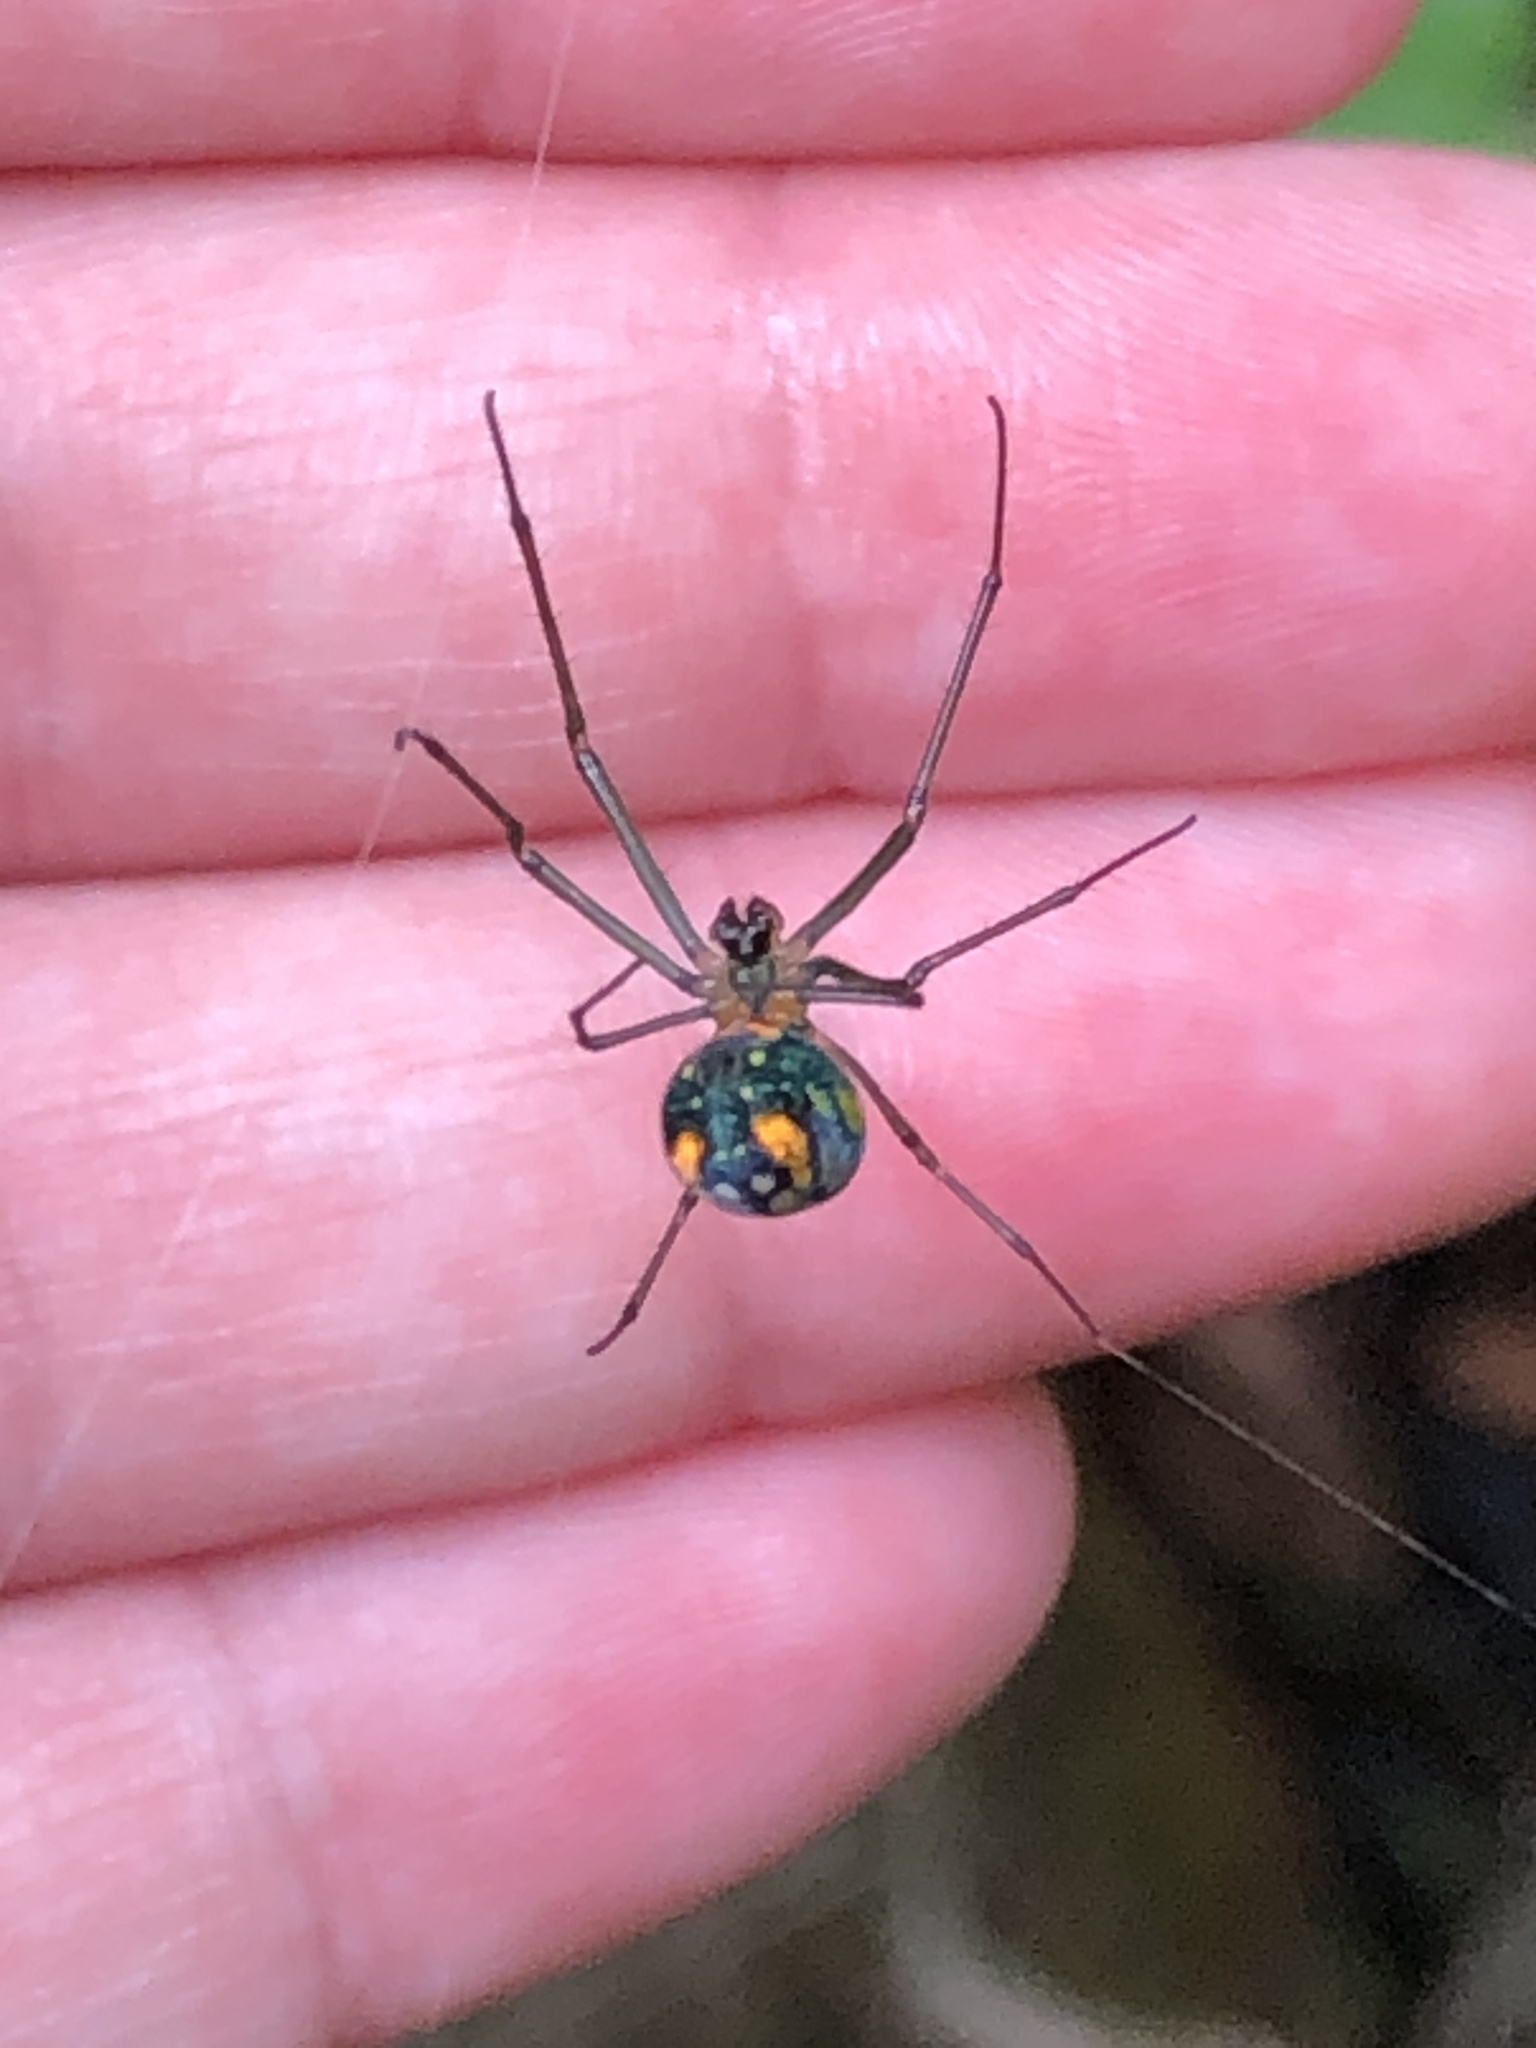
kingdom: Animalia
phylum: Arthropoda
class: Arachnida
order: Araneae
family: Tetragnathidae
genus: Leucauge
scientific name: Leucauge argyrobapta
